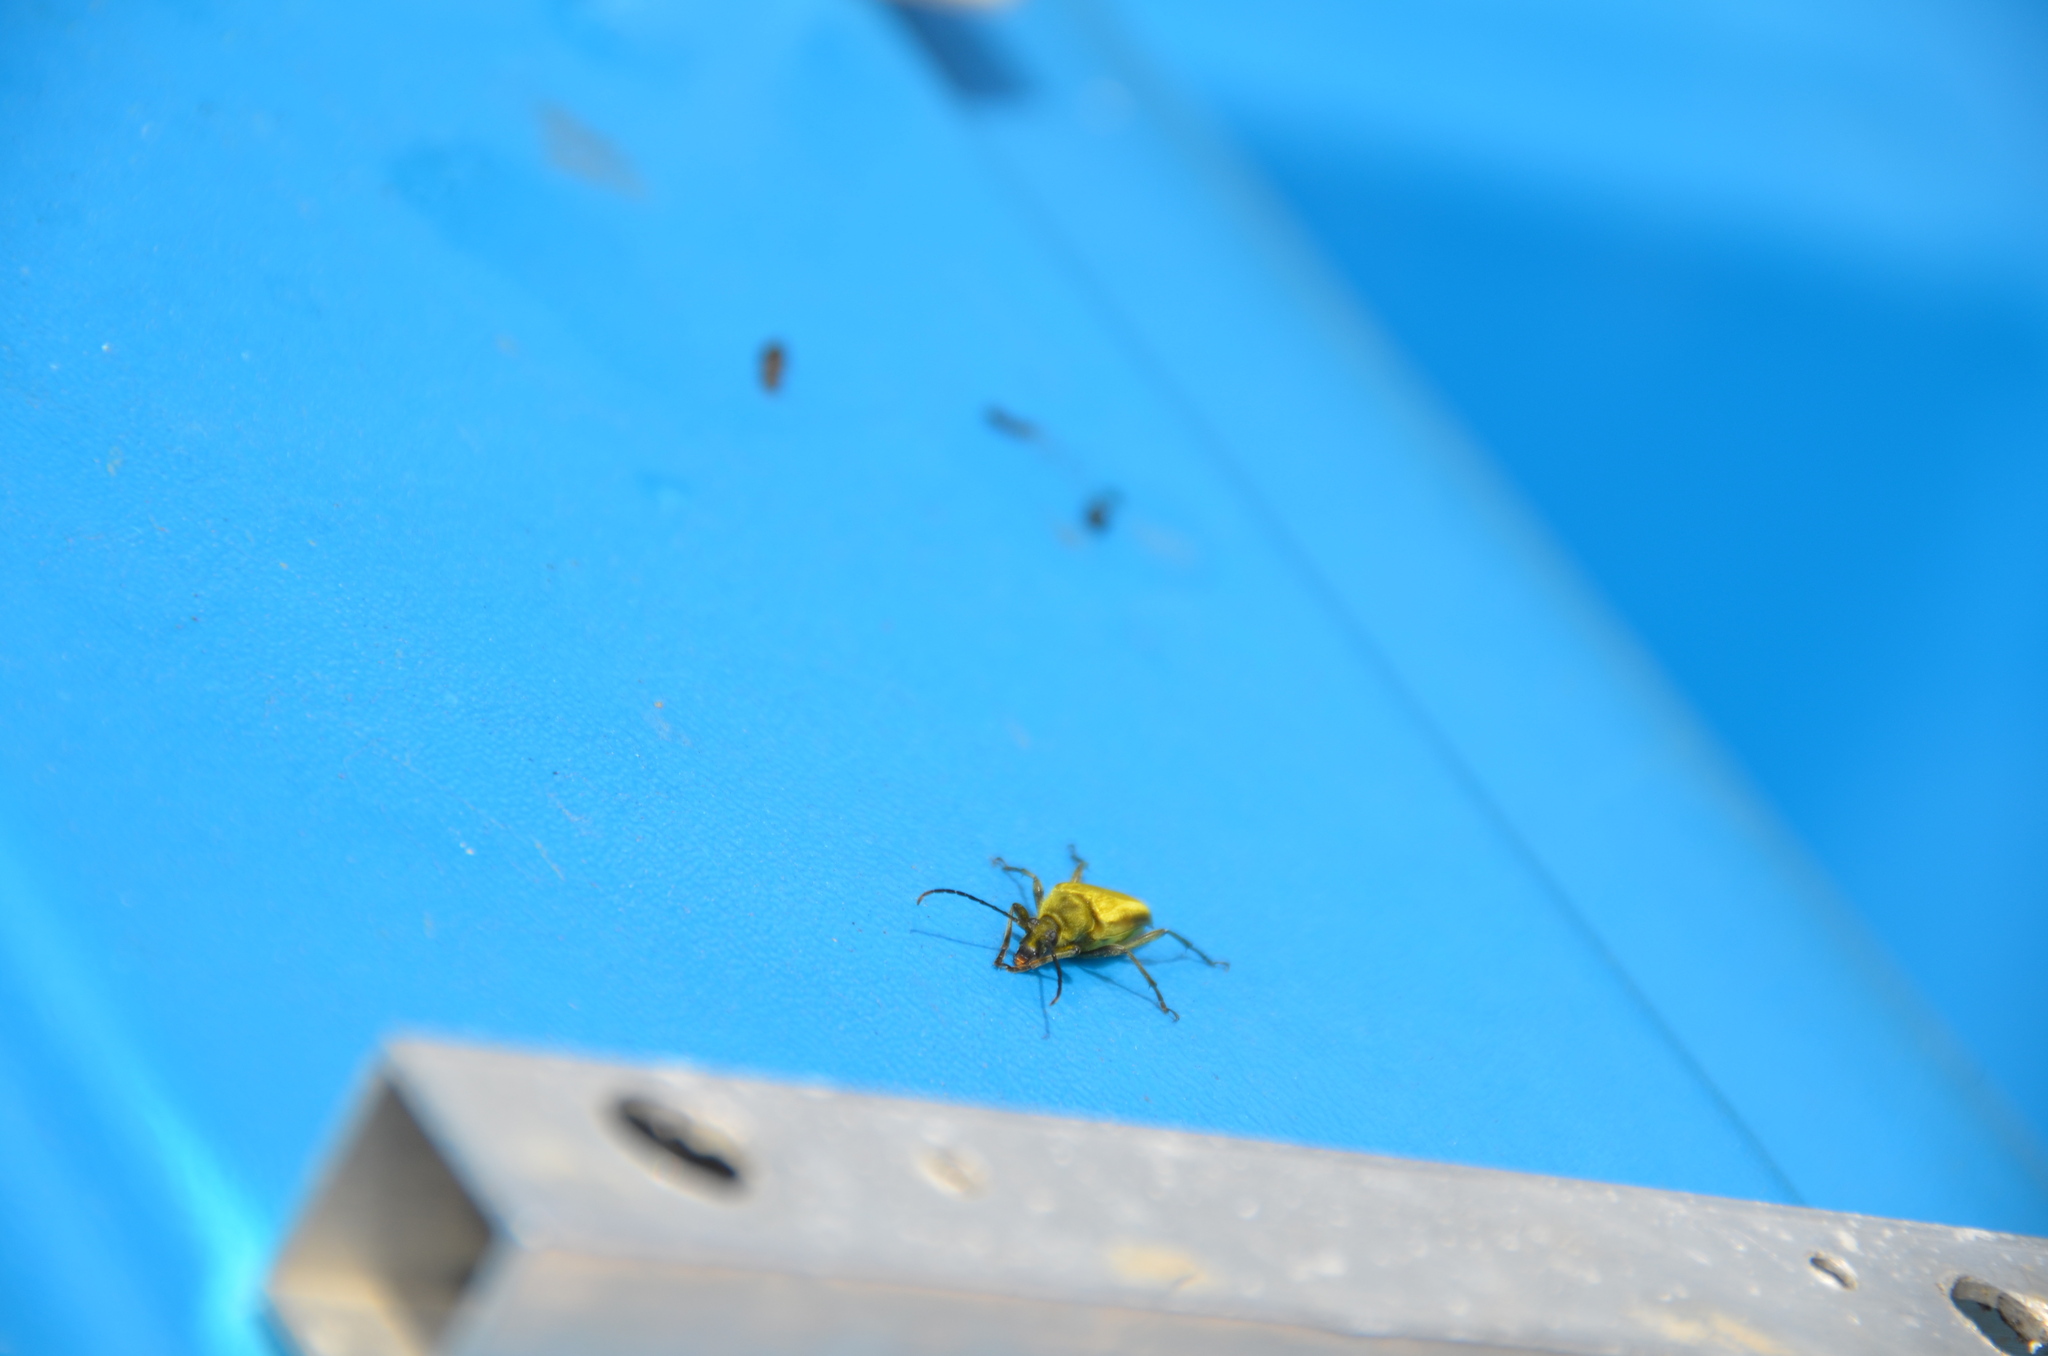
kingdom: Animalia
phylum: Arthropoda
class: Insecta
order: Coleoptera
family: Cerambycidae
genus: Cosmosalia
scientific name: Cosmosalia chrysocoma
